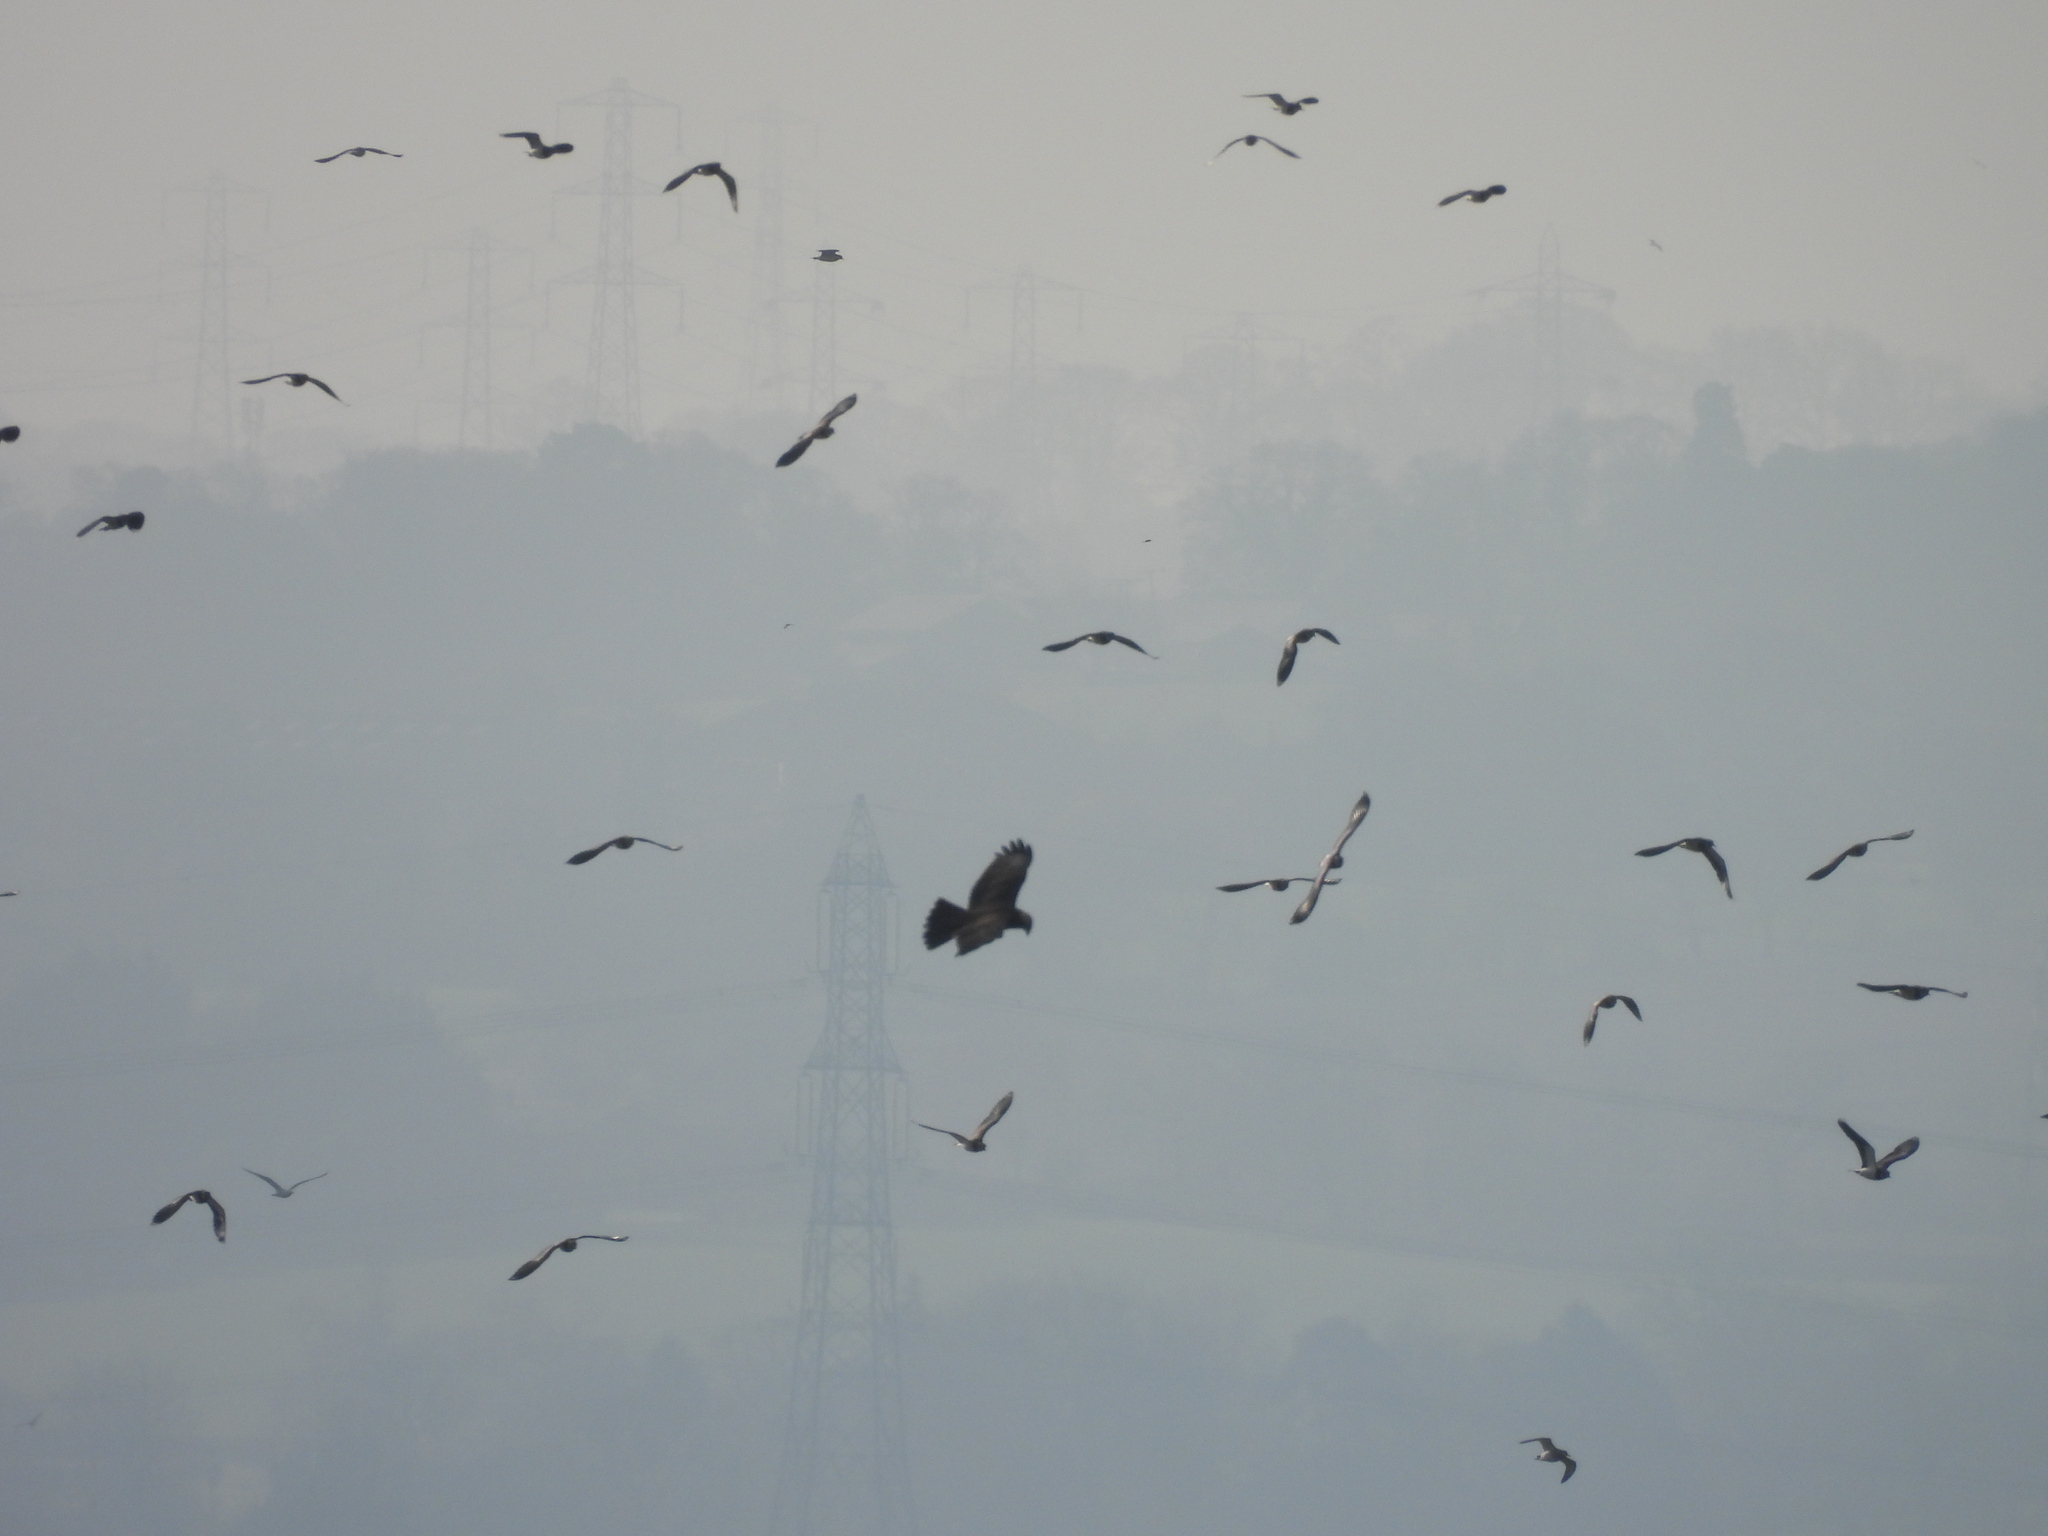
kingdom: Animalia
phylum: Chordata
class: Aves
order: Accipitriformes
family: Accipitridae
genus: Circus
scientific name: Circus aeruginosus
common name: Western marsh harrier
